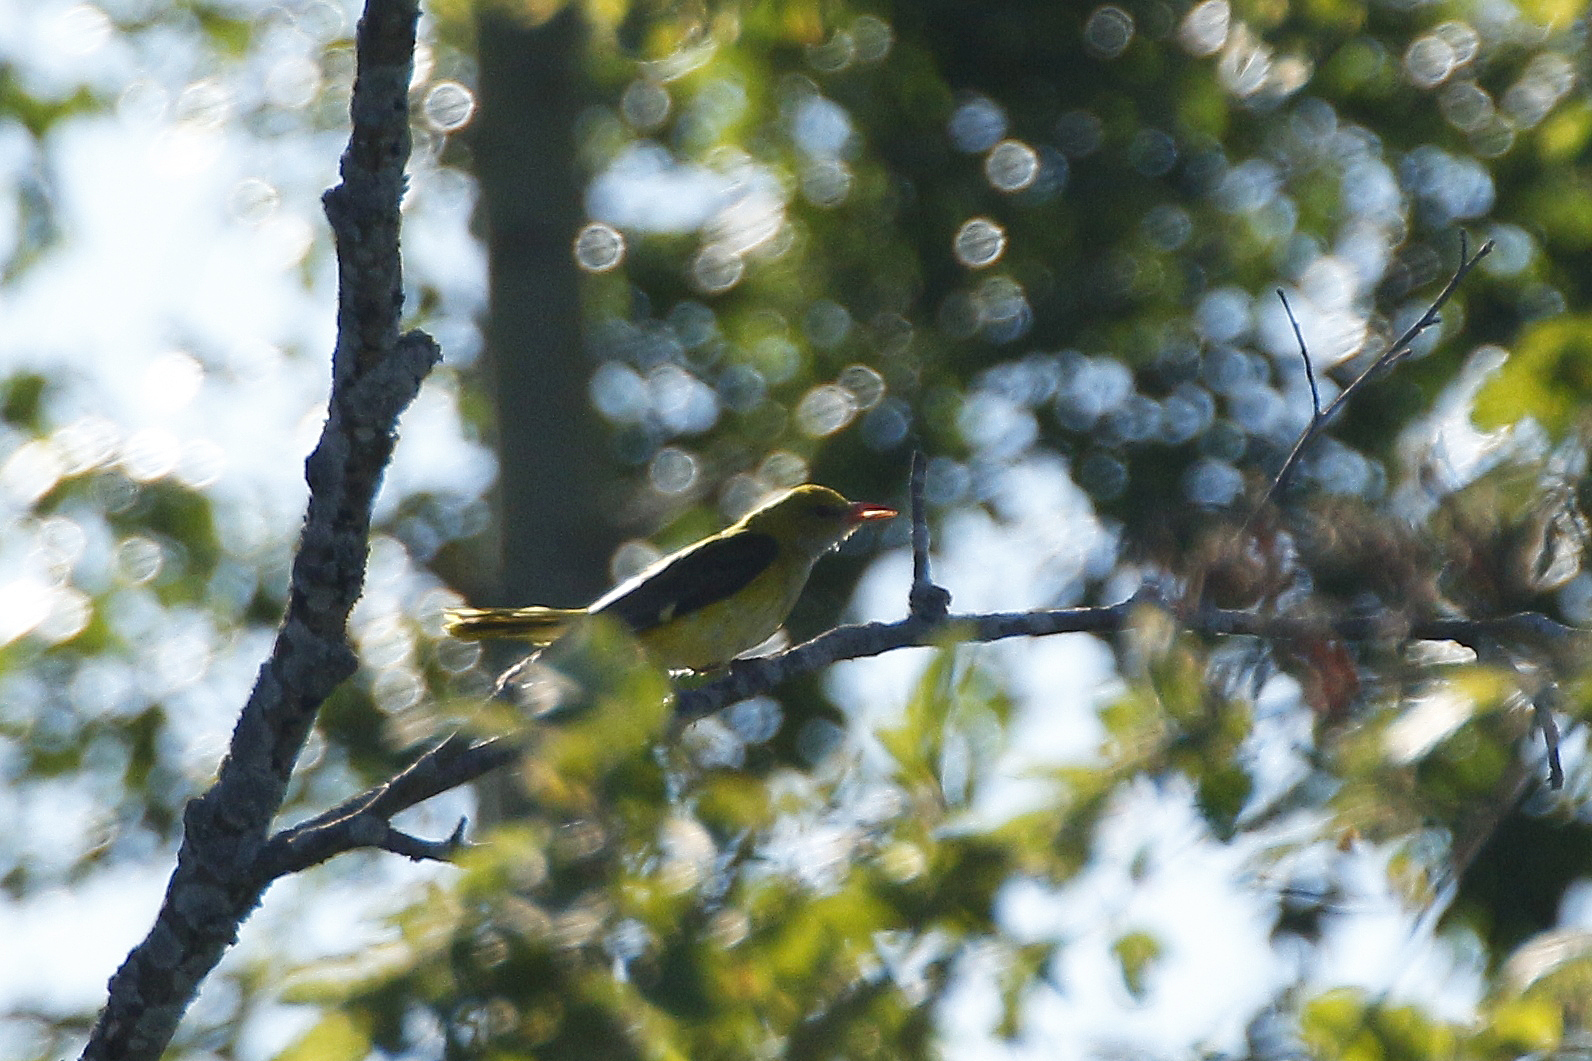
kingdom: Animalia
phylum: Chordata
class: Aves
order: Passeriformes
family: Oriolidae
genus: Oriolus
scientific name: Oriolus oriolus
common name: Eurasian golden oriole
